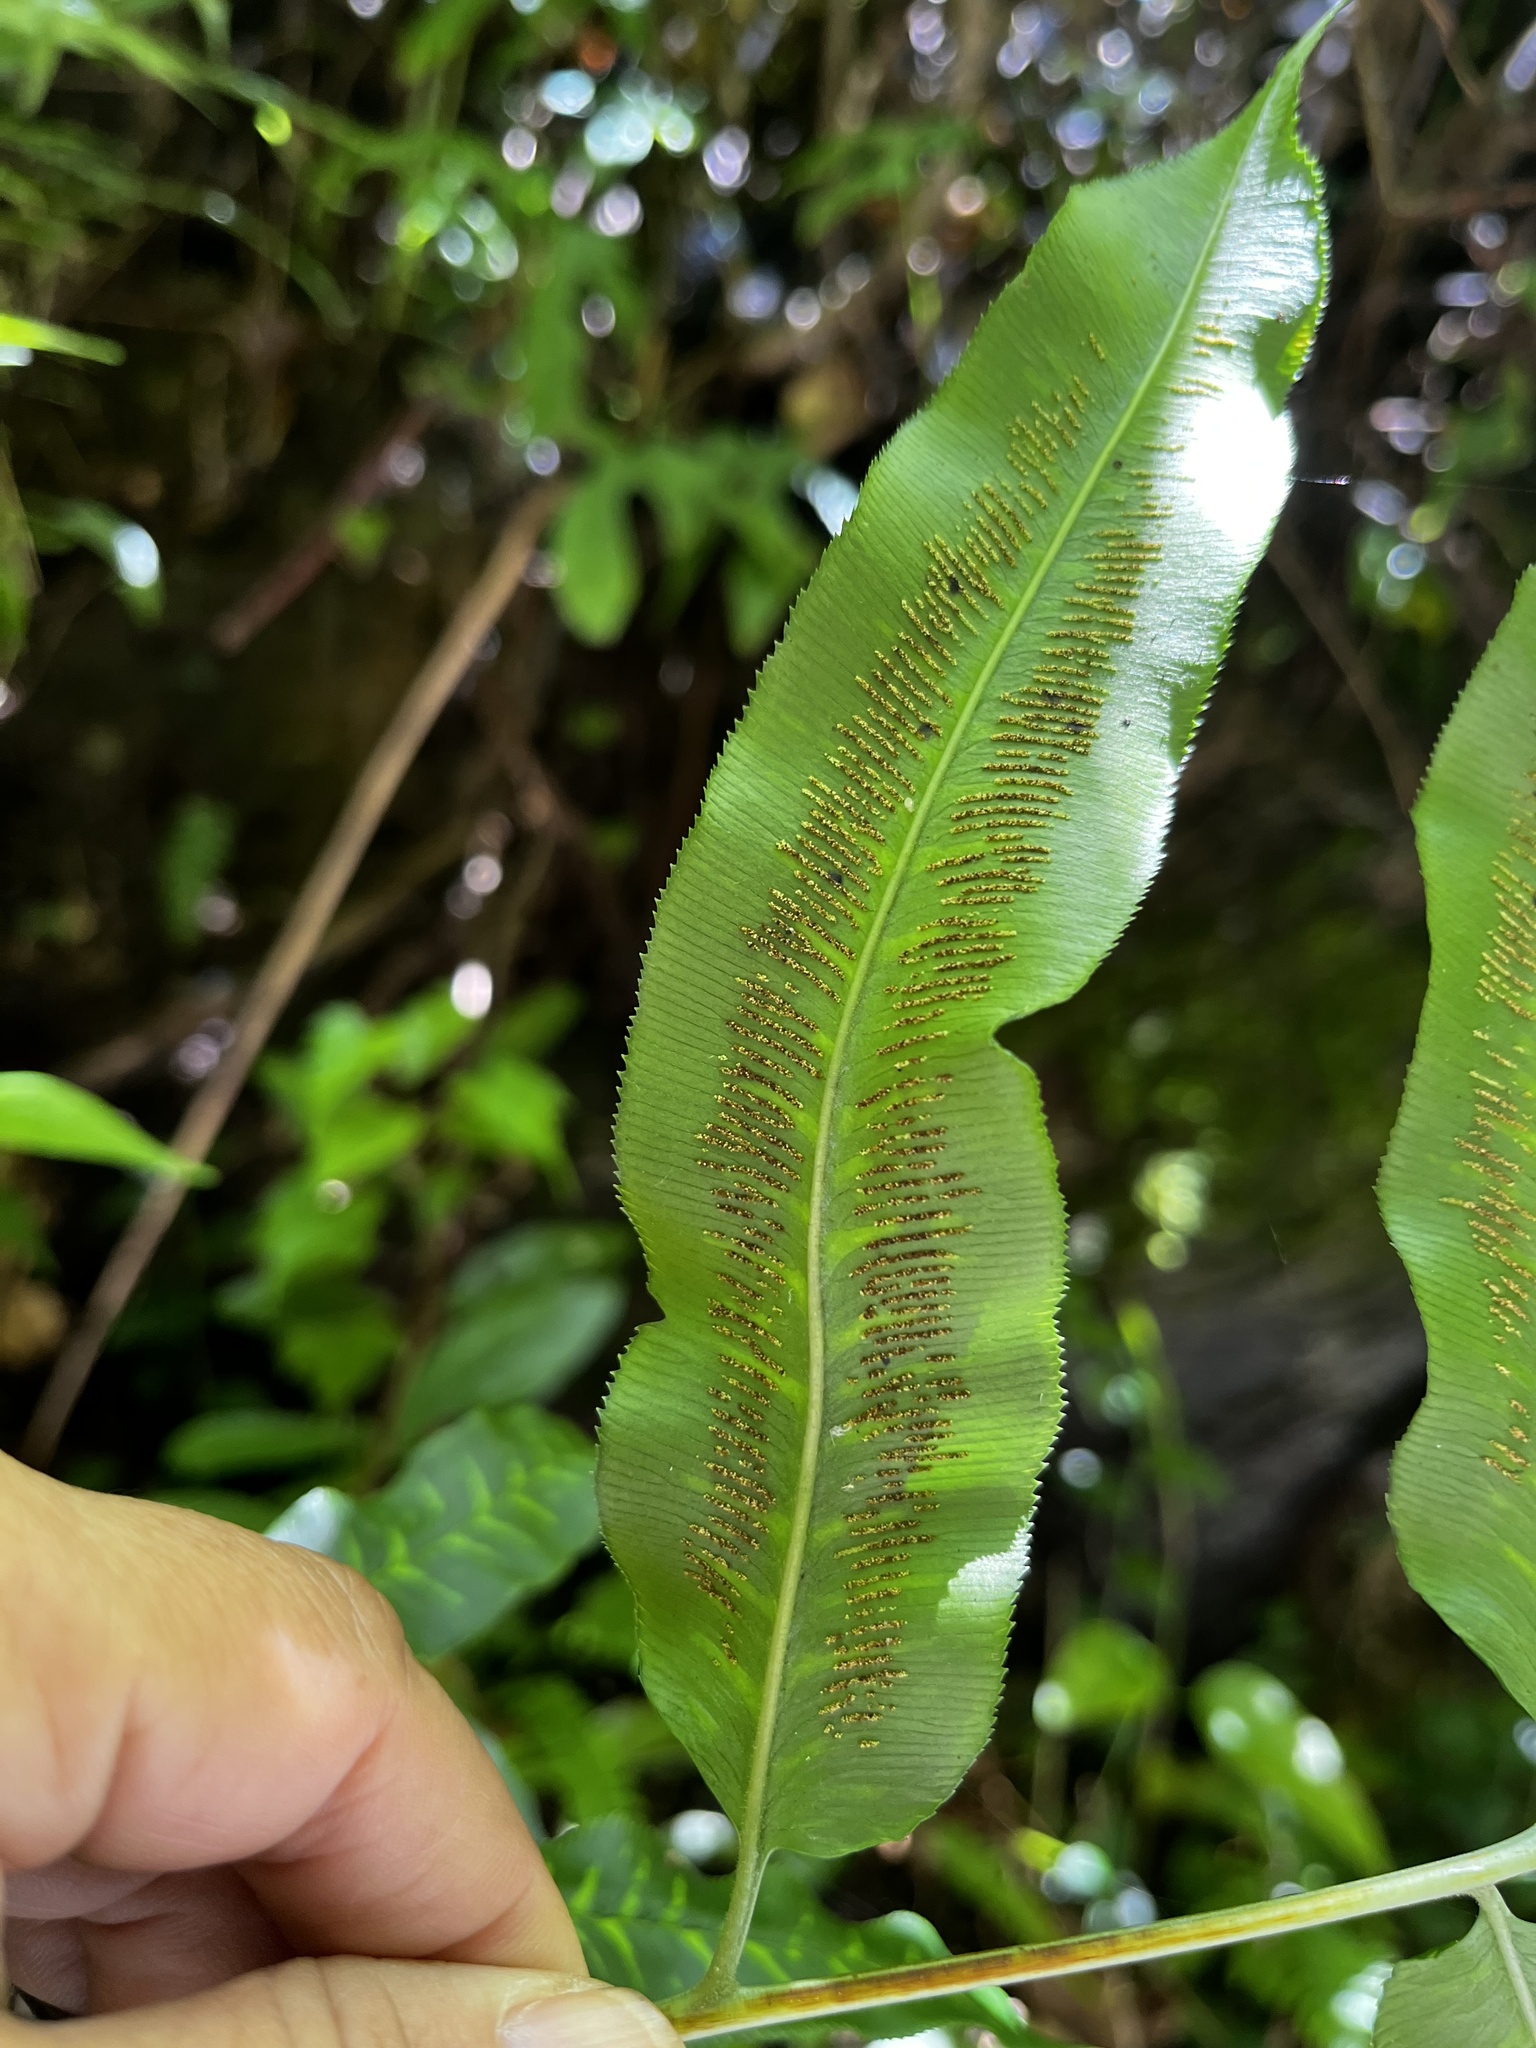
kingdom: Plantae
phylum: Tracheophyta
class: Polypodiopsida
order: Polypodiales
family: Pteridaceae
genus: Coniogramme
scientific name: Coniogramme intermedia
